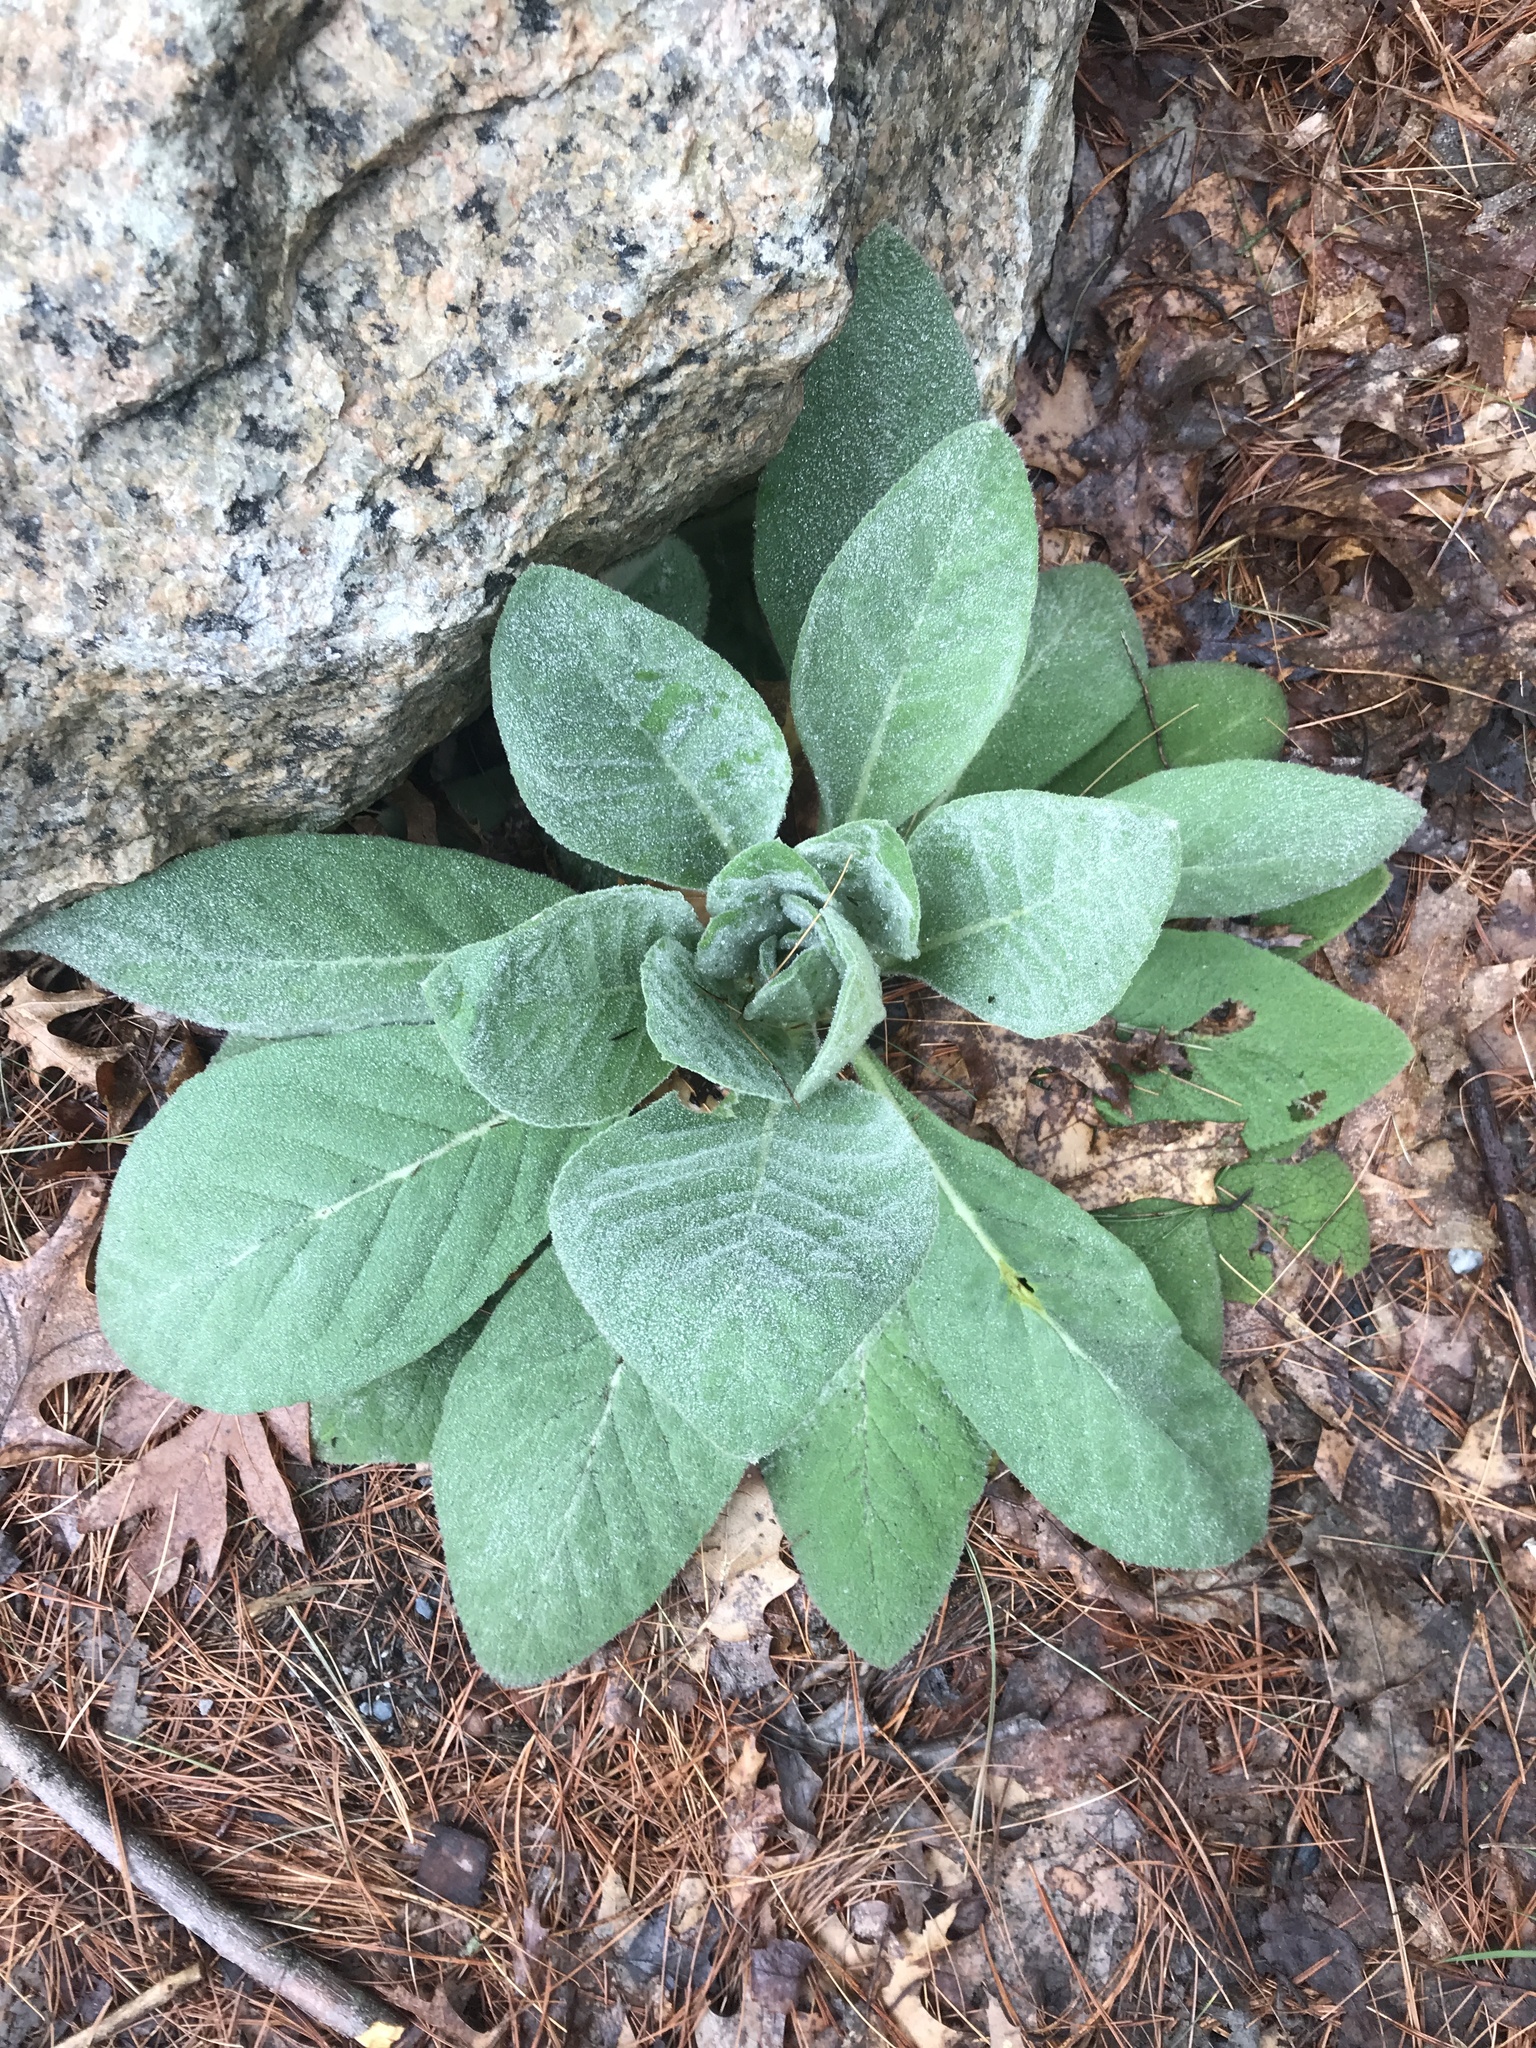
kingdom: Plantae
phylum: Tracheophyta
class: Magnoliopsida
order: Lamiales
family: Scrophulariaceae
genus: Verbascum
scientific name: Verbascum thapsus
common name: Common mullein
